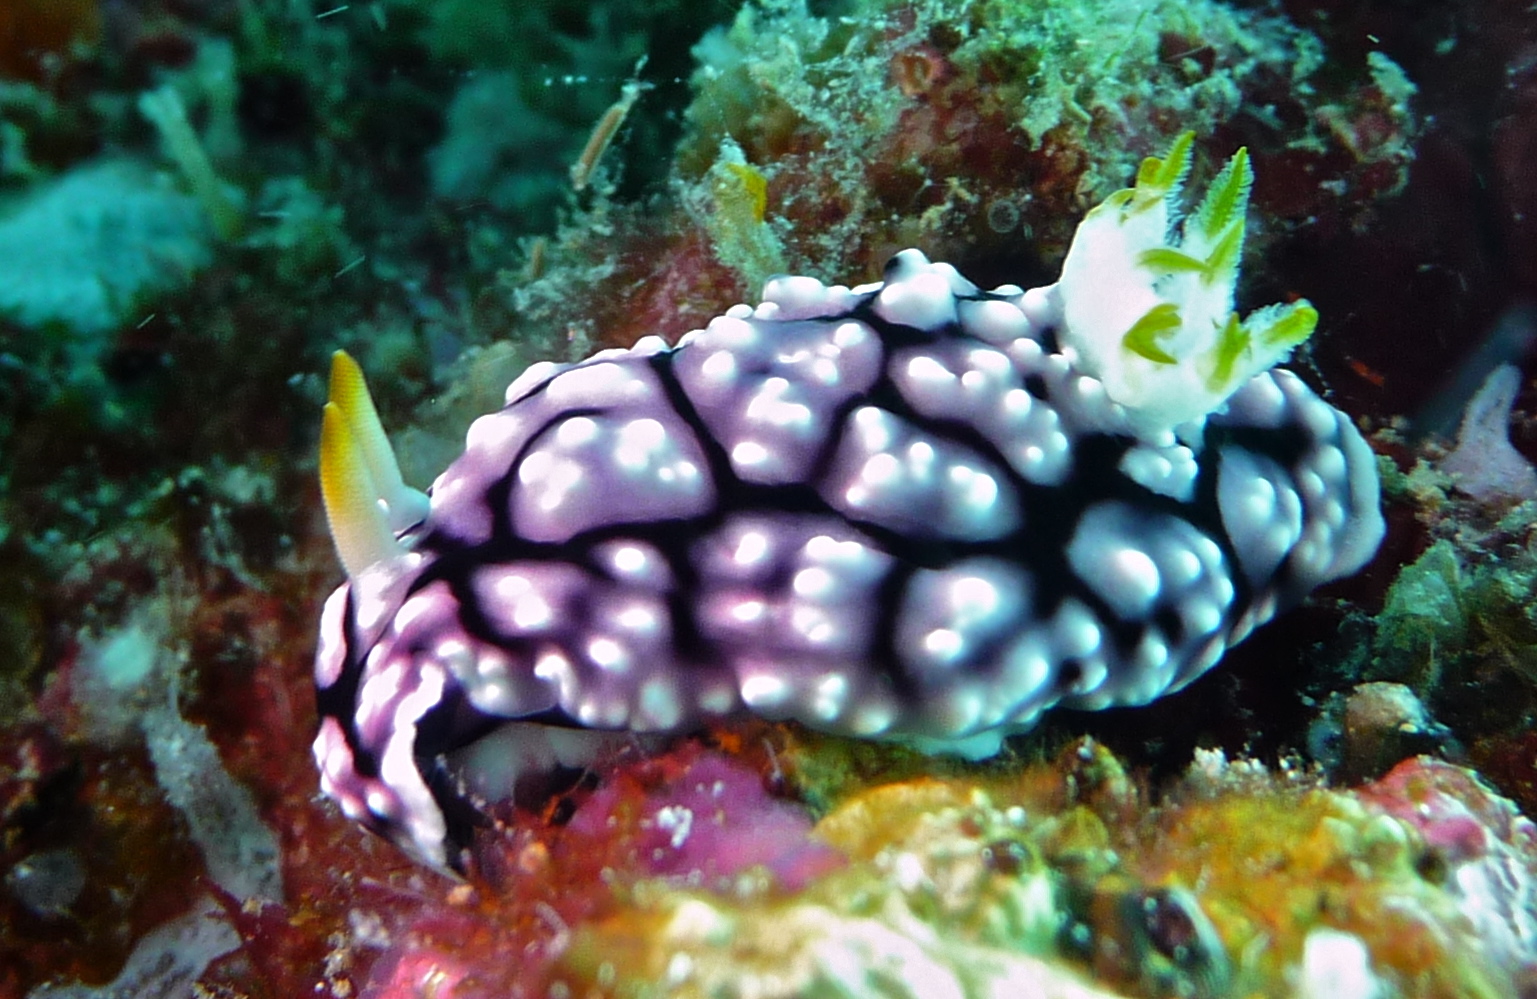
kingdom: Animalia
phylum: Mollusca
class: Gastropoda
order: Nudibranchia
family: Chromodorididae
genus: Goniobranchus
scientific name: Goniobranchus geometricus
